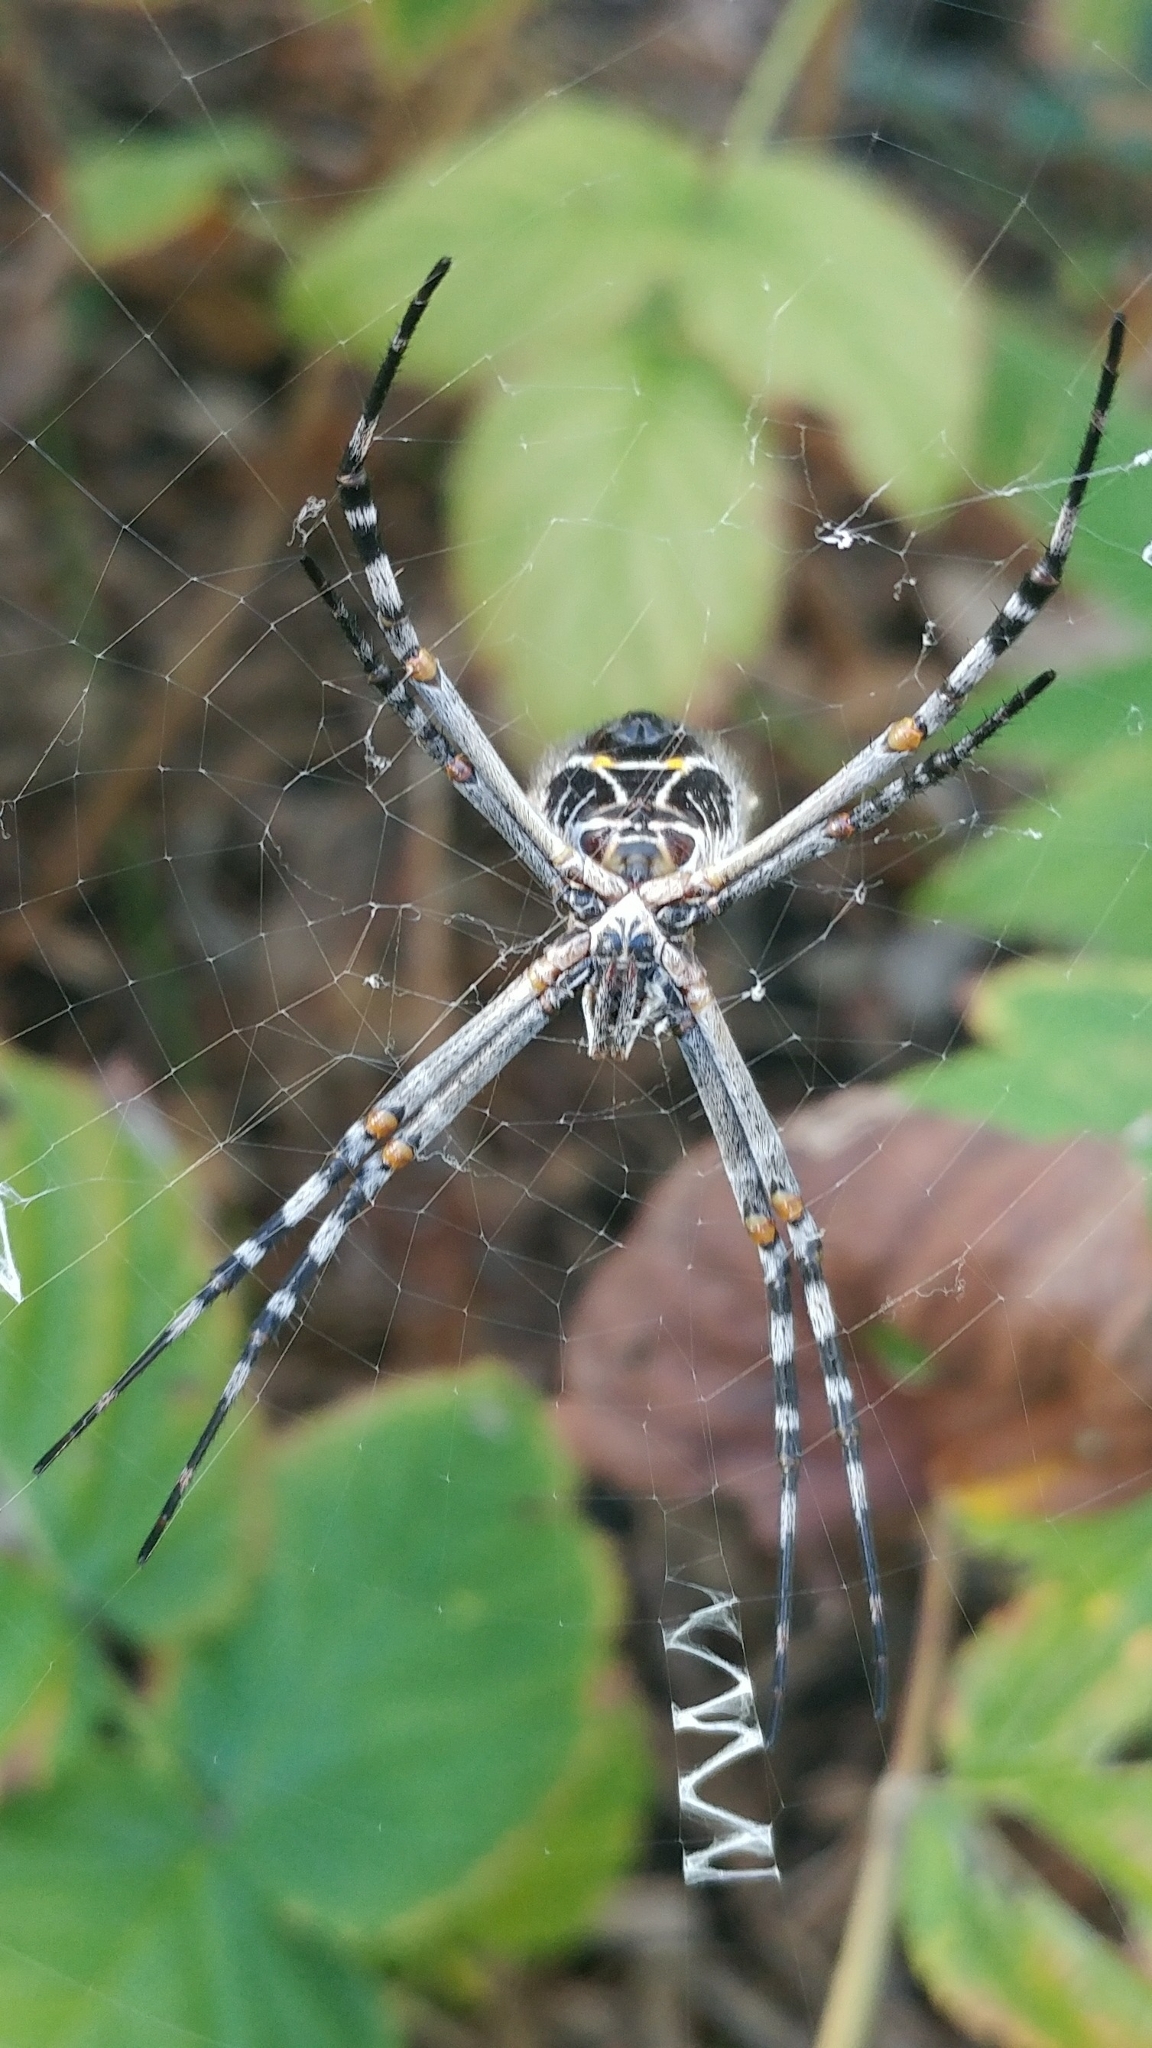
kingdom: Animalia
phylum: Arthropoda
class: Arachnida
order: Araneae
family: Araneidae
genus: Argiope
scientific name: Argiope argentata
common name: Orb weavers
